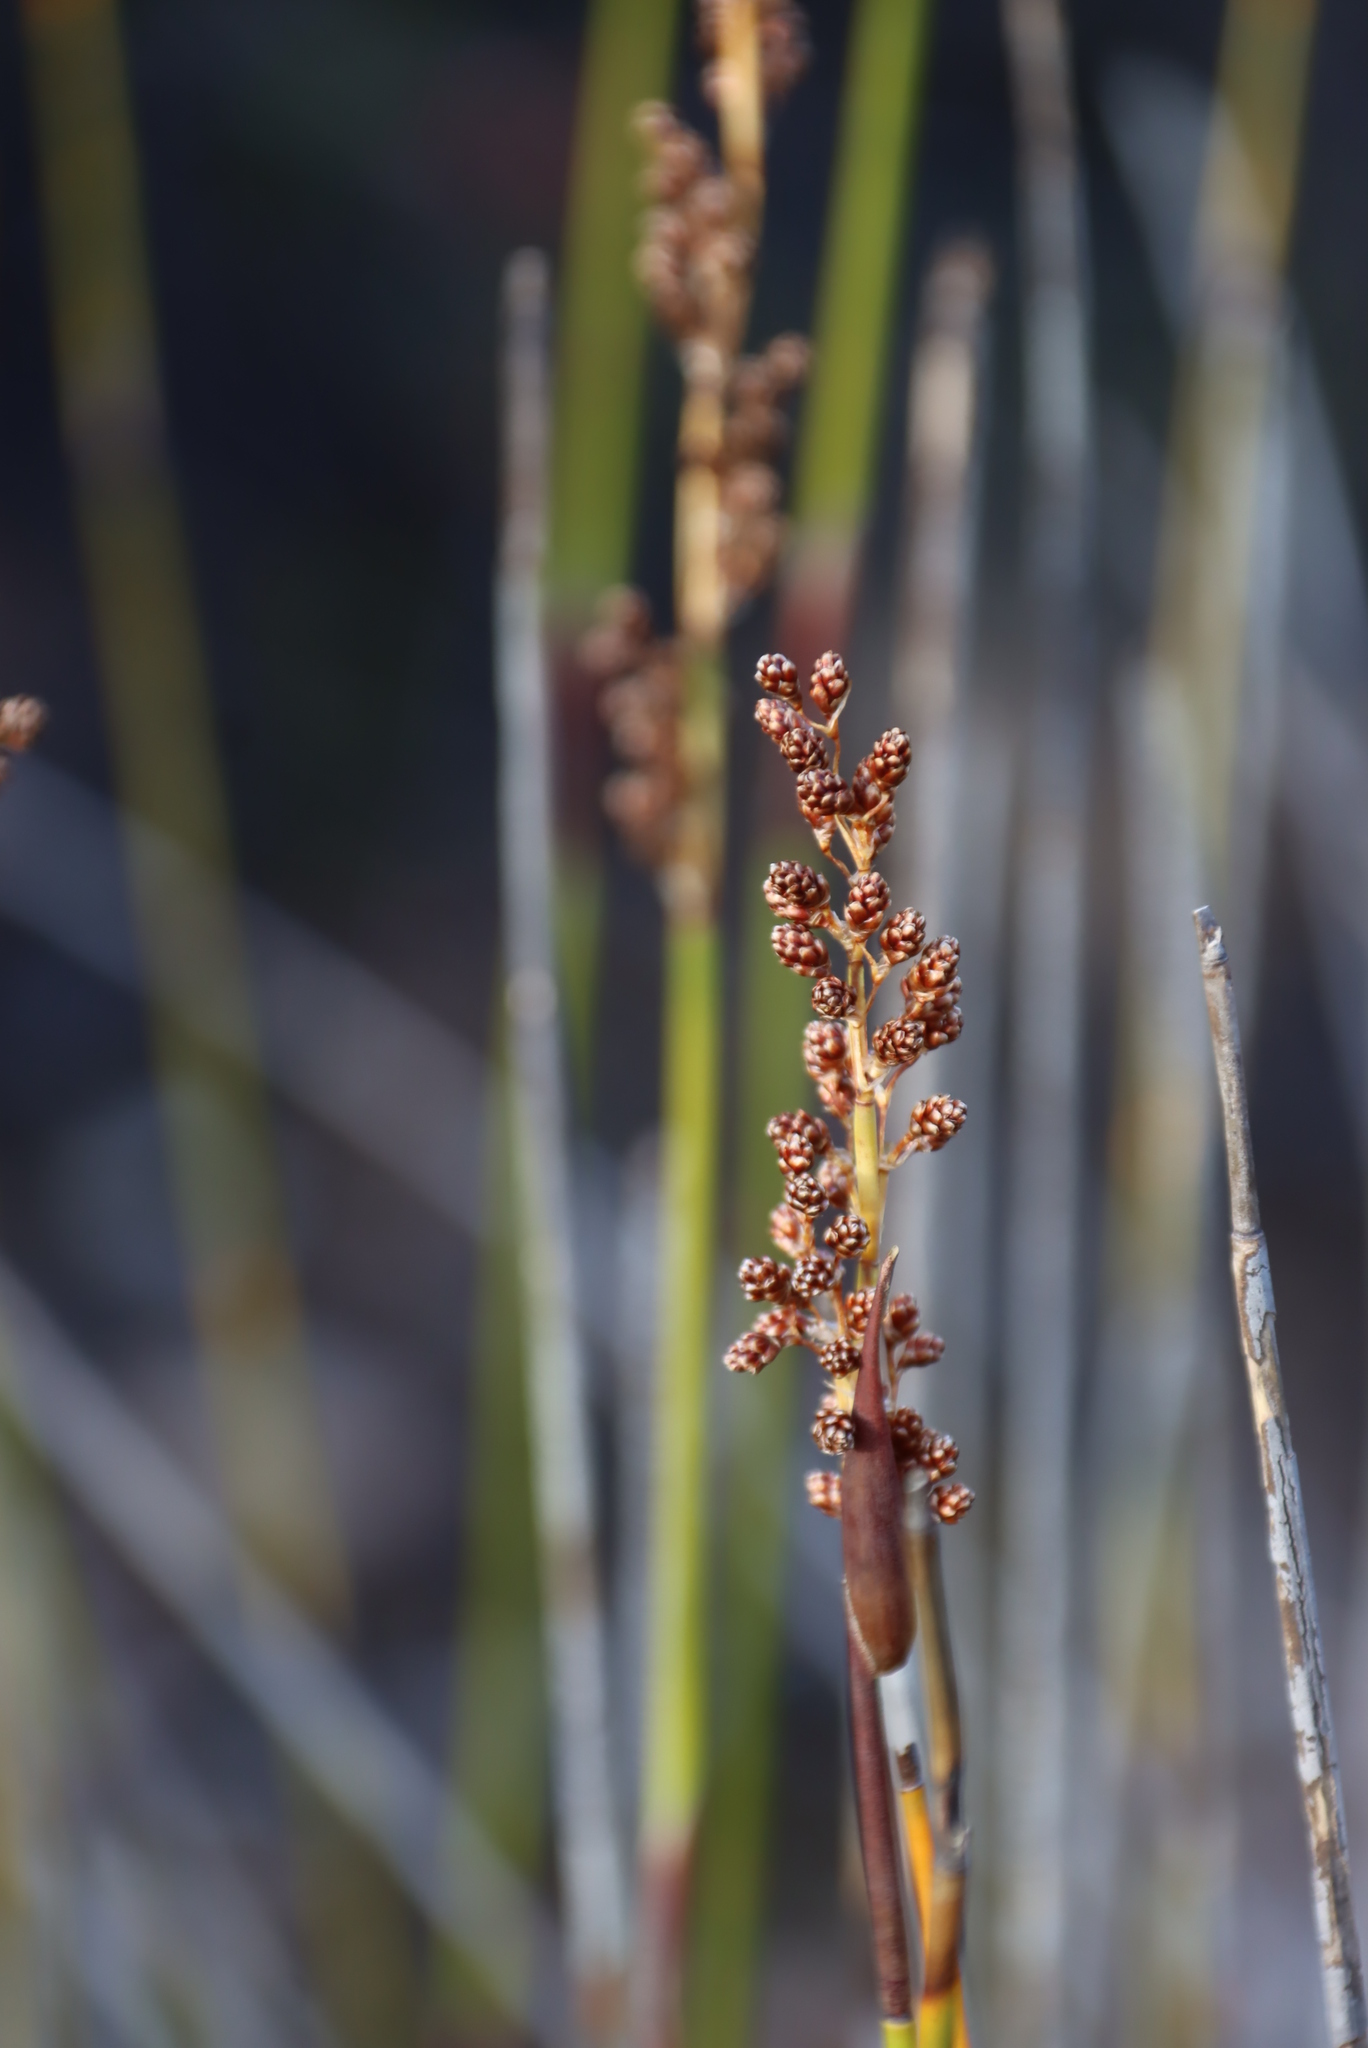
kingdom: Plantae
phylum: Tracheophyta
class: Liliopsida
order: Poales
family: Restionaceae
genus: Cannomois
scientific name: Cannomois scirpoides
